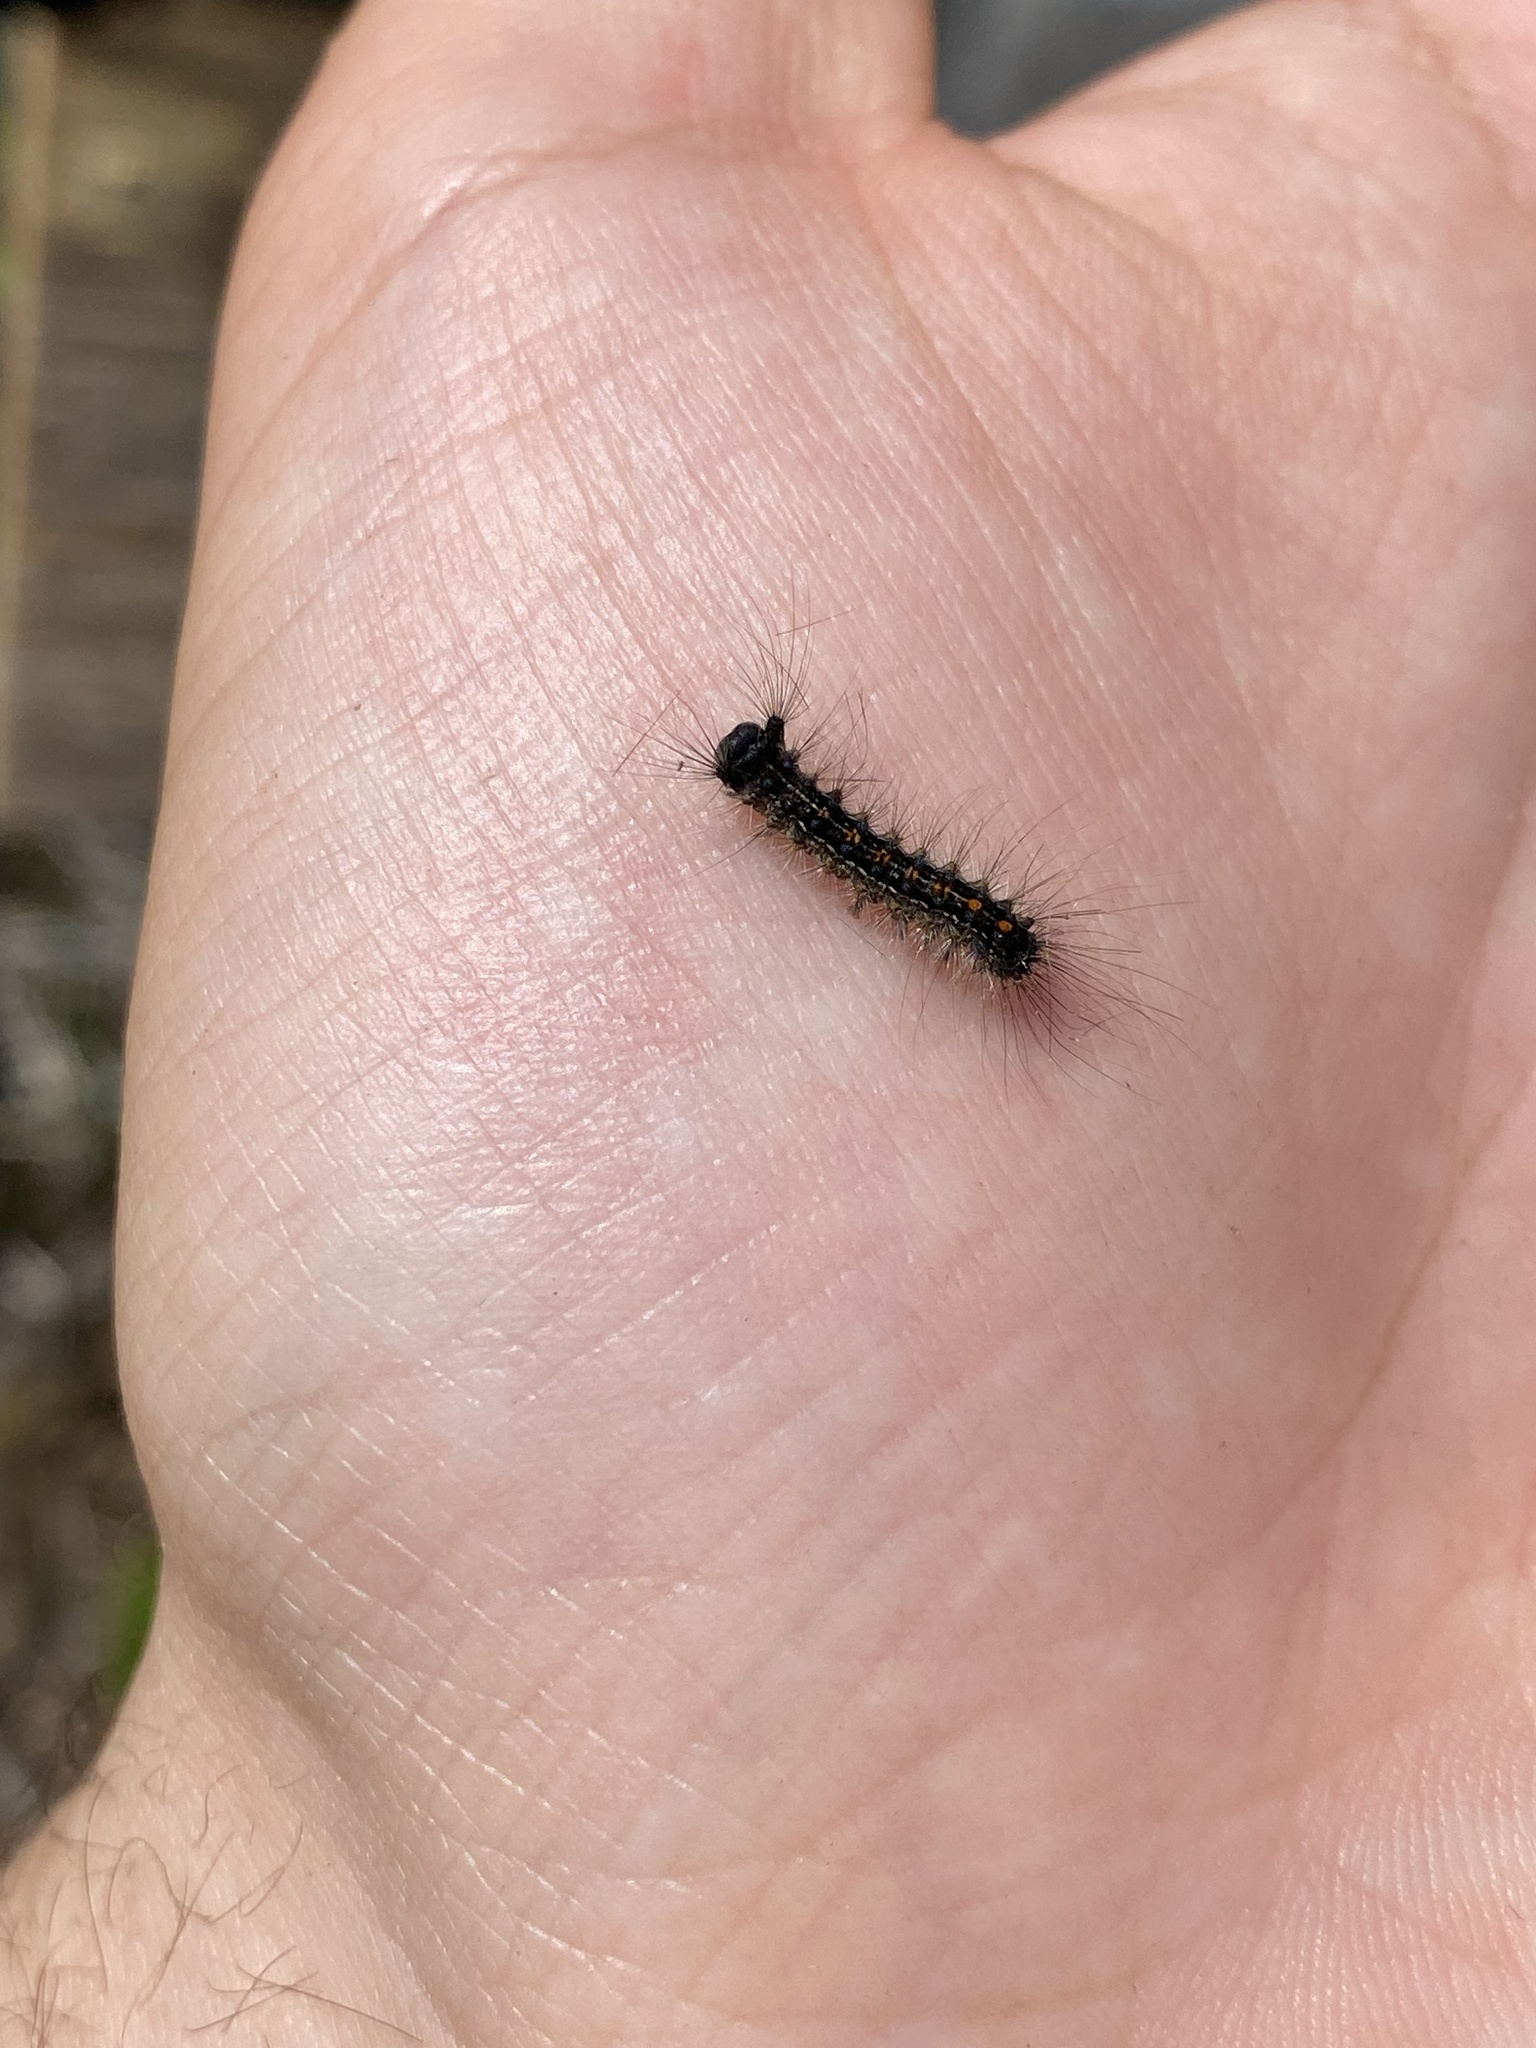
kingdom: Animalia
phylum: Arthropoda
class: Insecta
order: Lepidoptera
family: Erebidae
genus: Lymantria
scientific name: Lymantria dispar
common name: Gypsy moth
